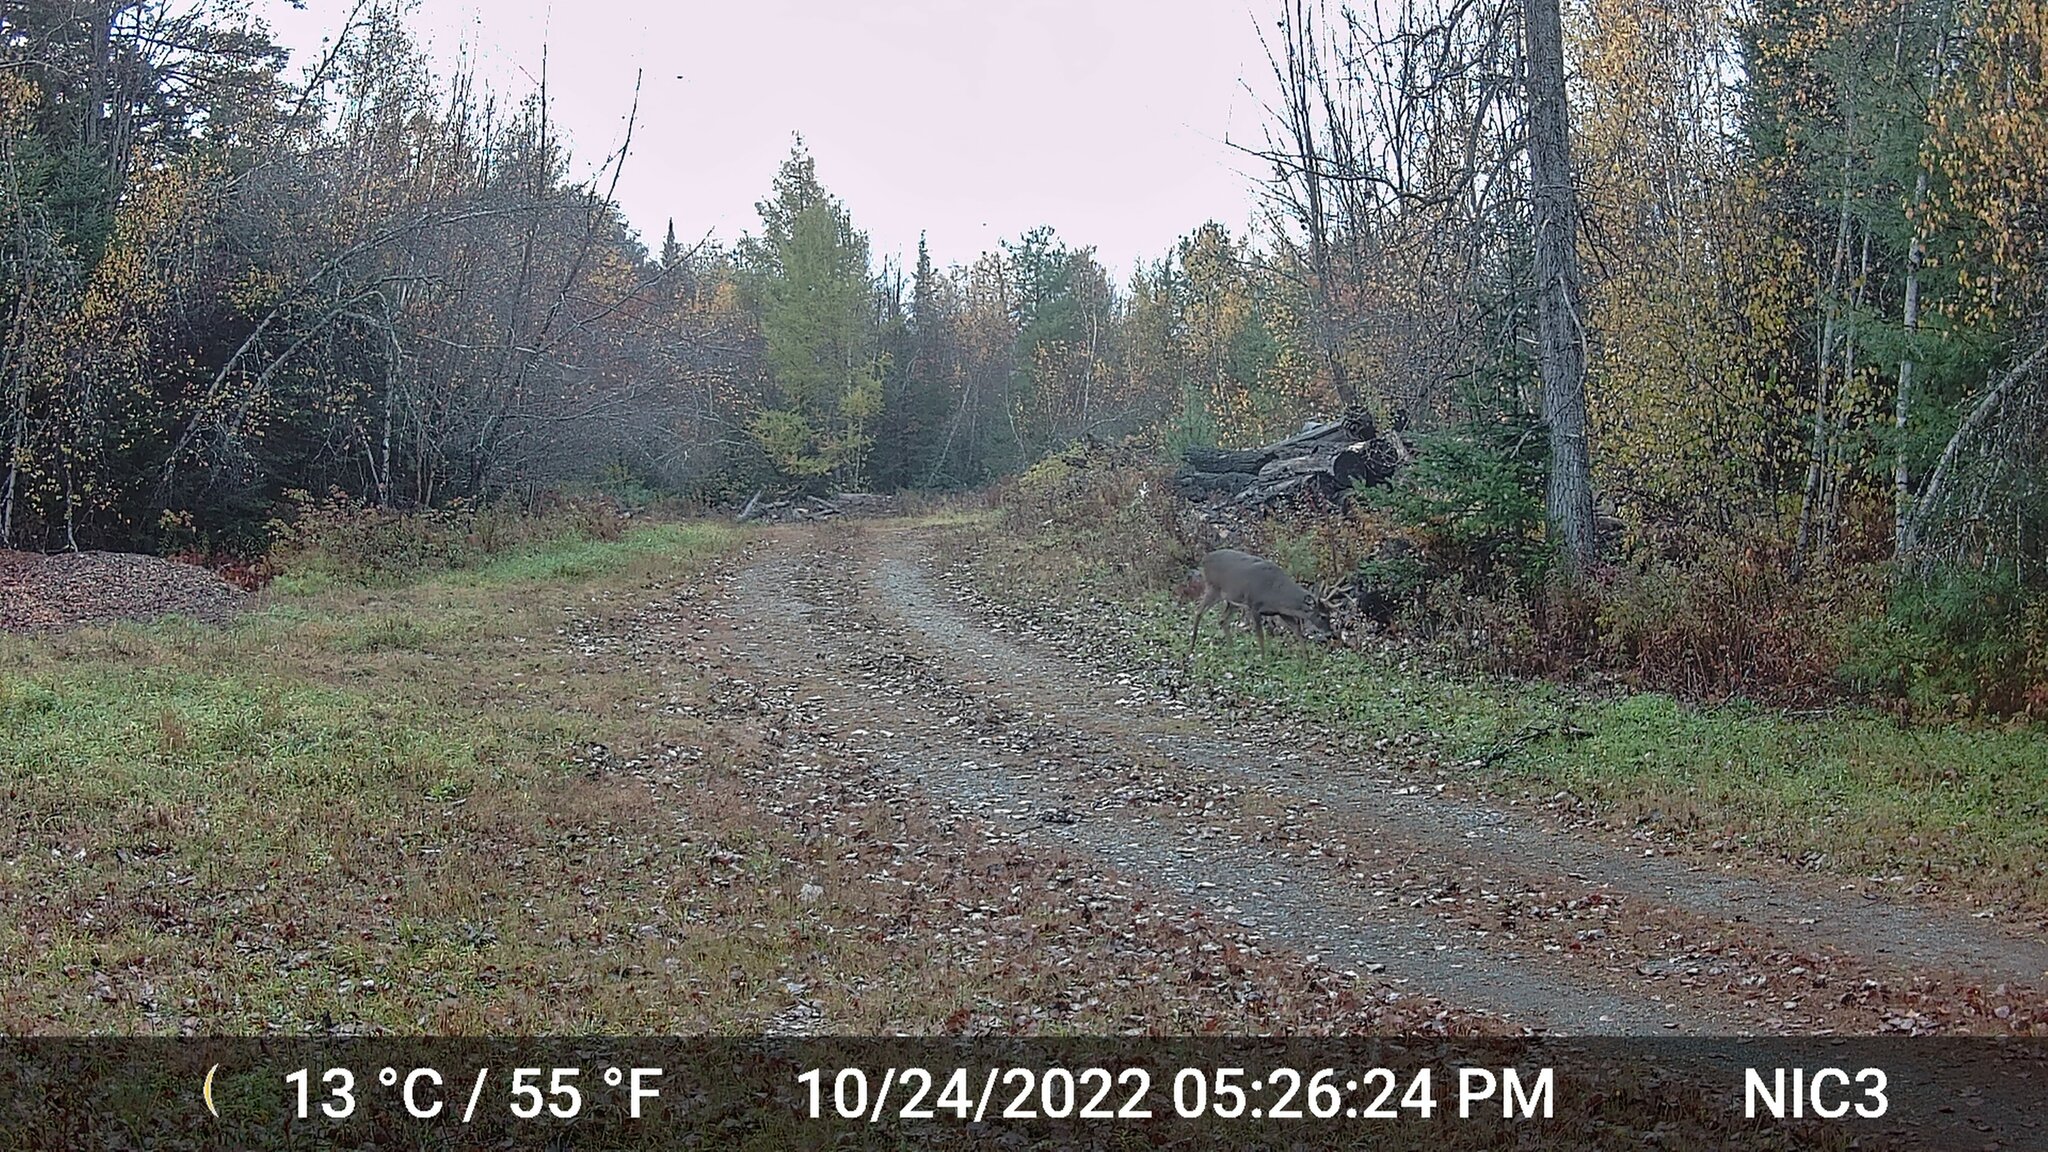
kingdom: Animalia
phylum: Chordata
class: Mammalia
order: Artiodactyla
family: Cervidae
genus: Odocoileus
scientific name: Odocoileus virginianus
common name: White-tailed deer
